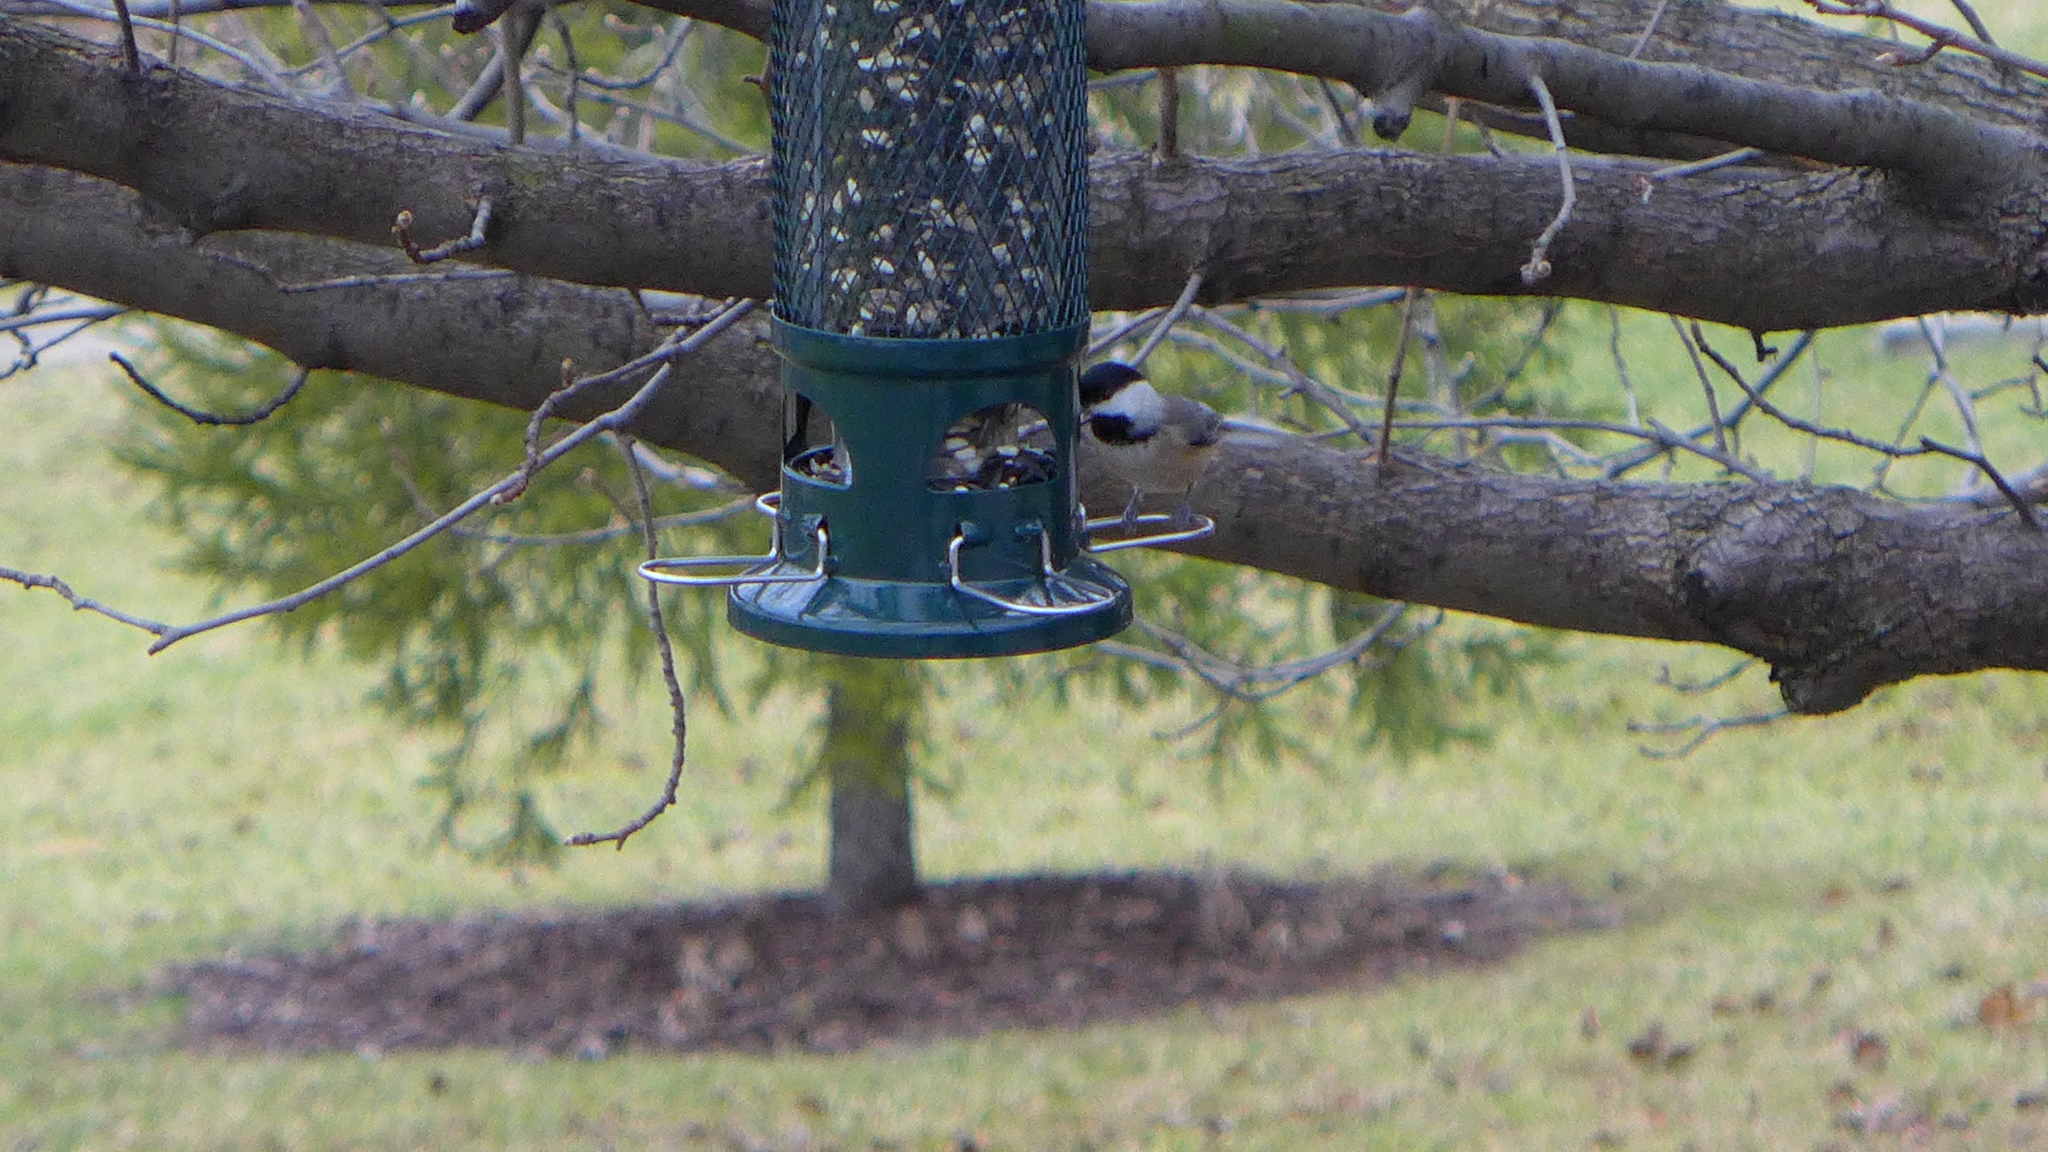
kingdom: Animalia
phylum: Chordata
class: Aves
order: Passeriformes
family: Paridae
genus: Poecile
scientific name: Poecile carolinensis
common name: Carolina chickadee
